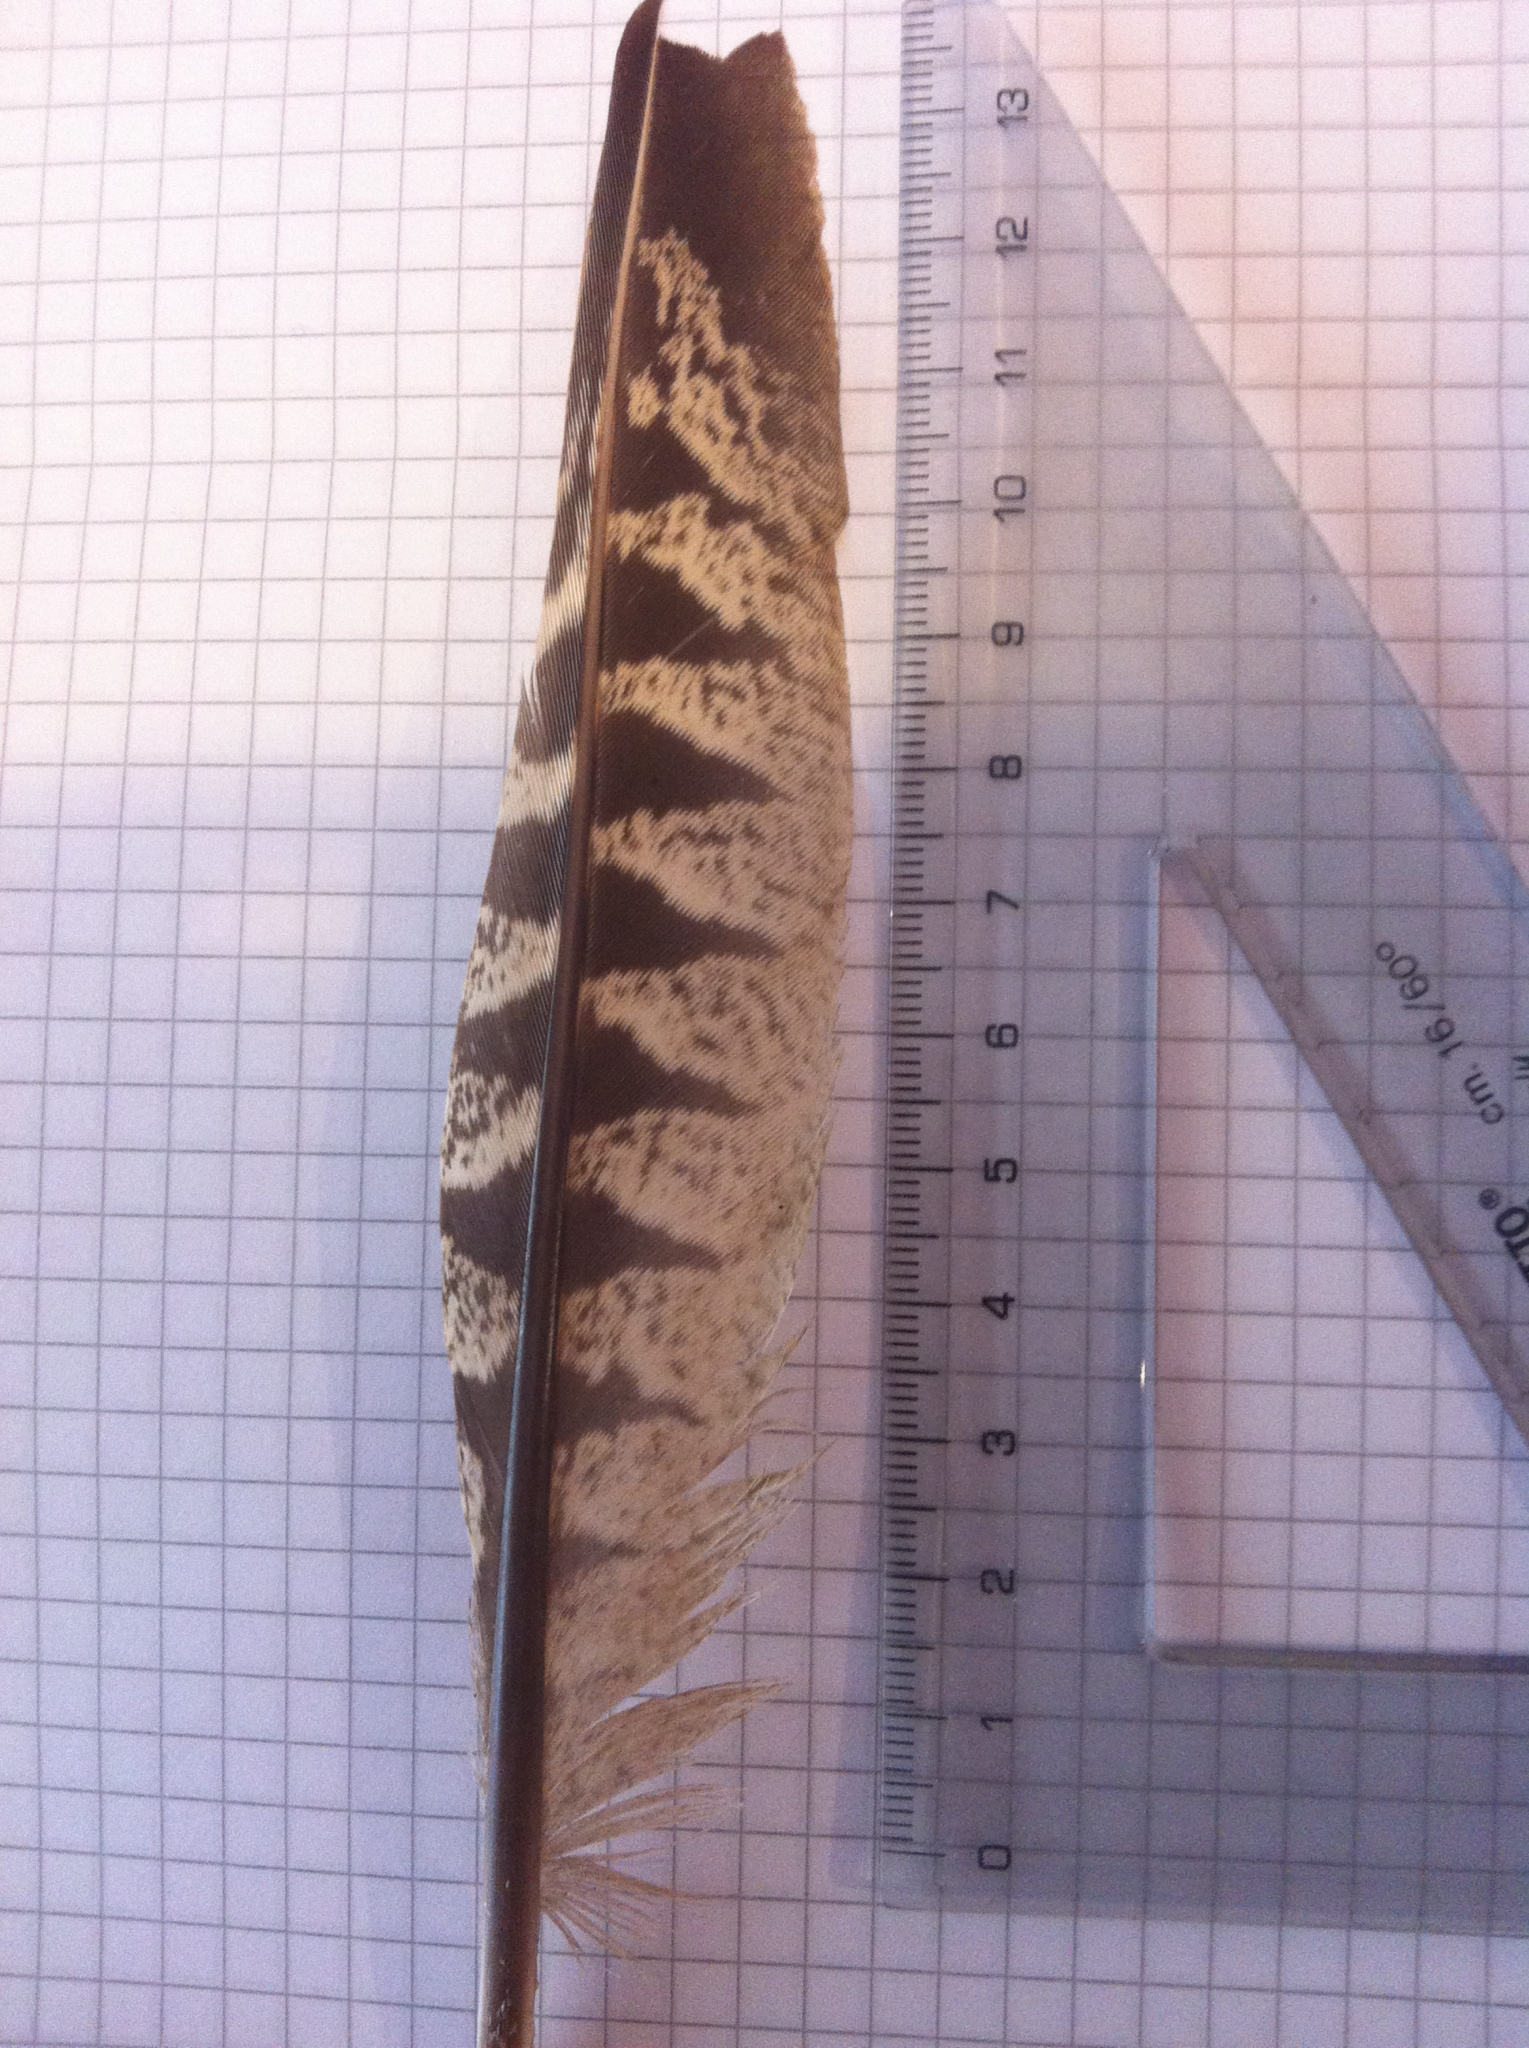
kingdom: Animalia
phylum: Chordata
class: Aves
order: Galliformes
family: Phasianidae
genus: Phasianus
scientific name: Phasianus colchicus
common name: Common pheasant
